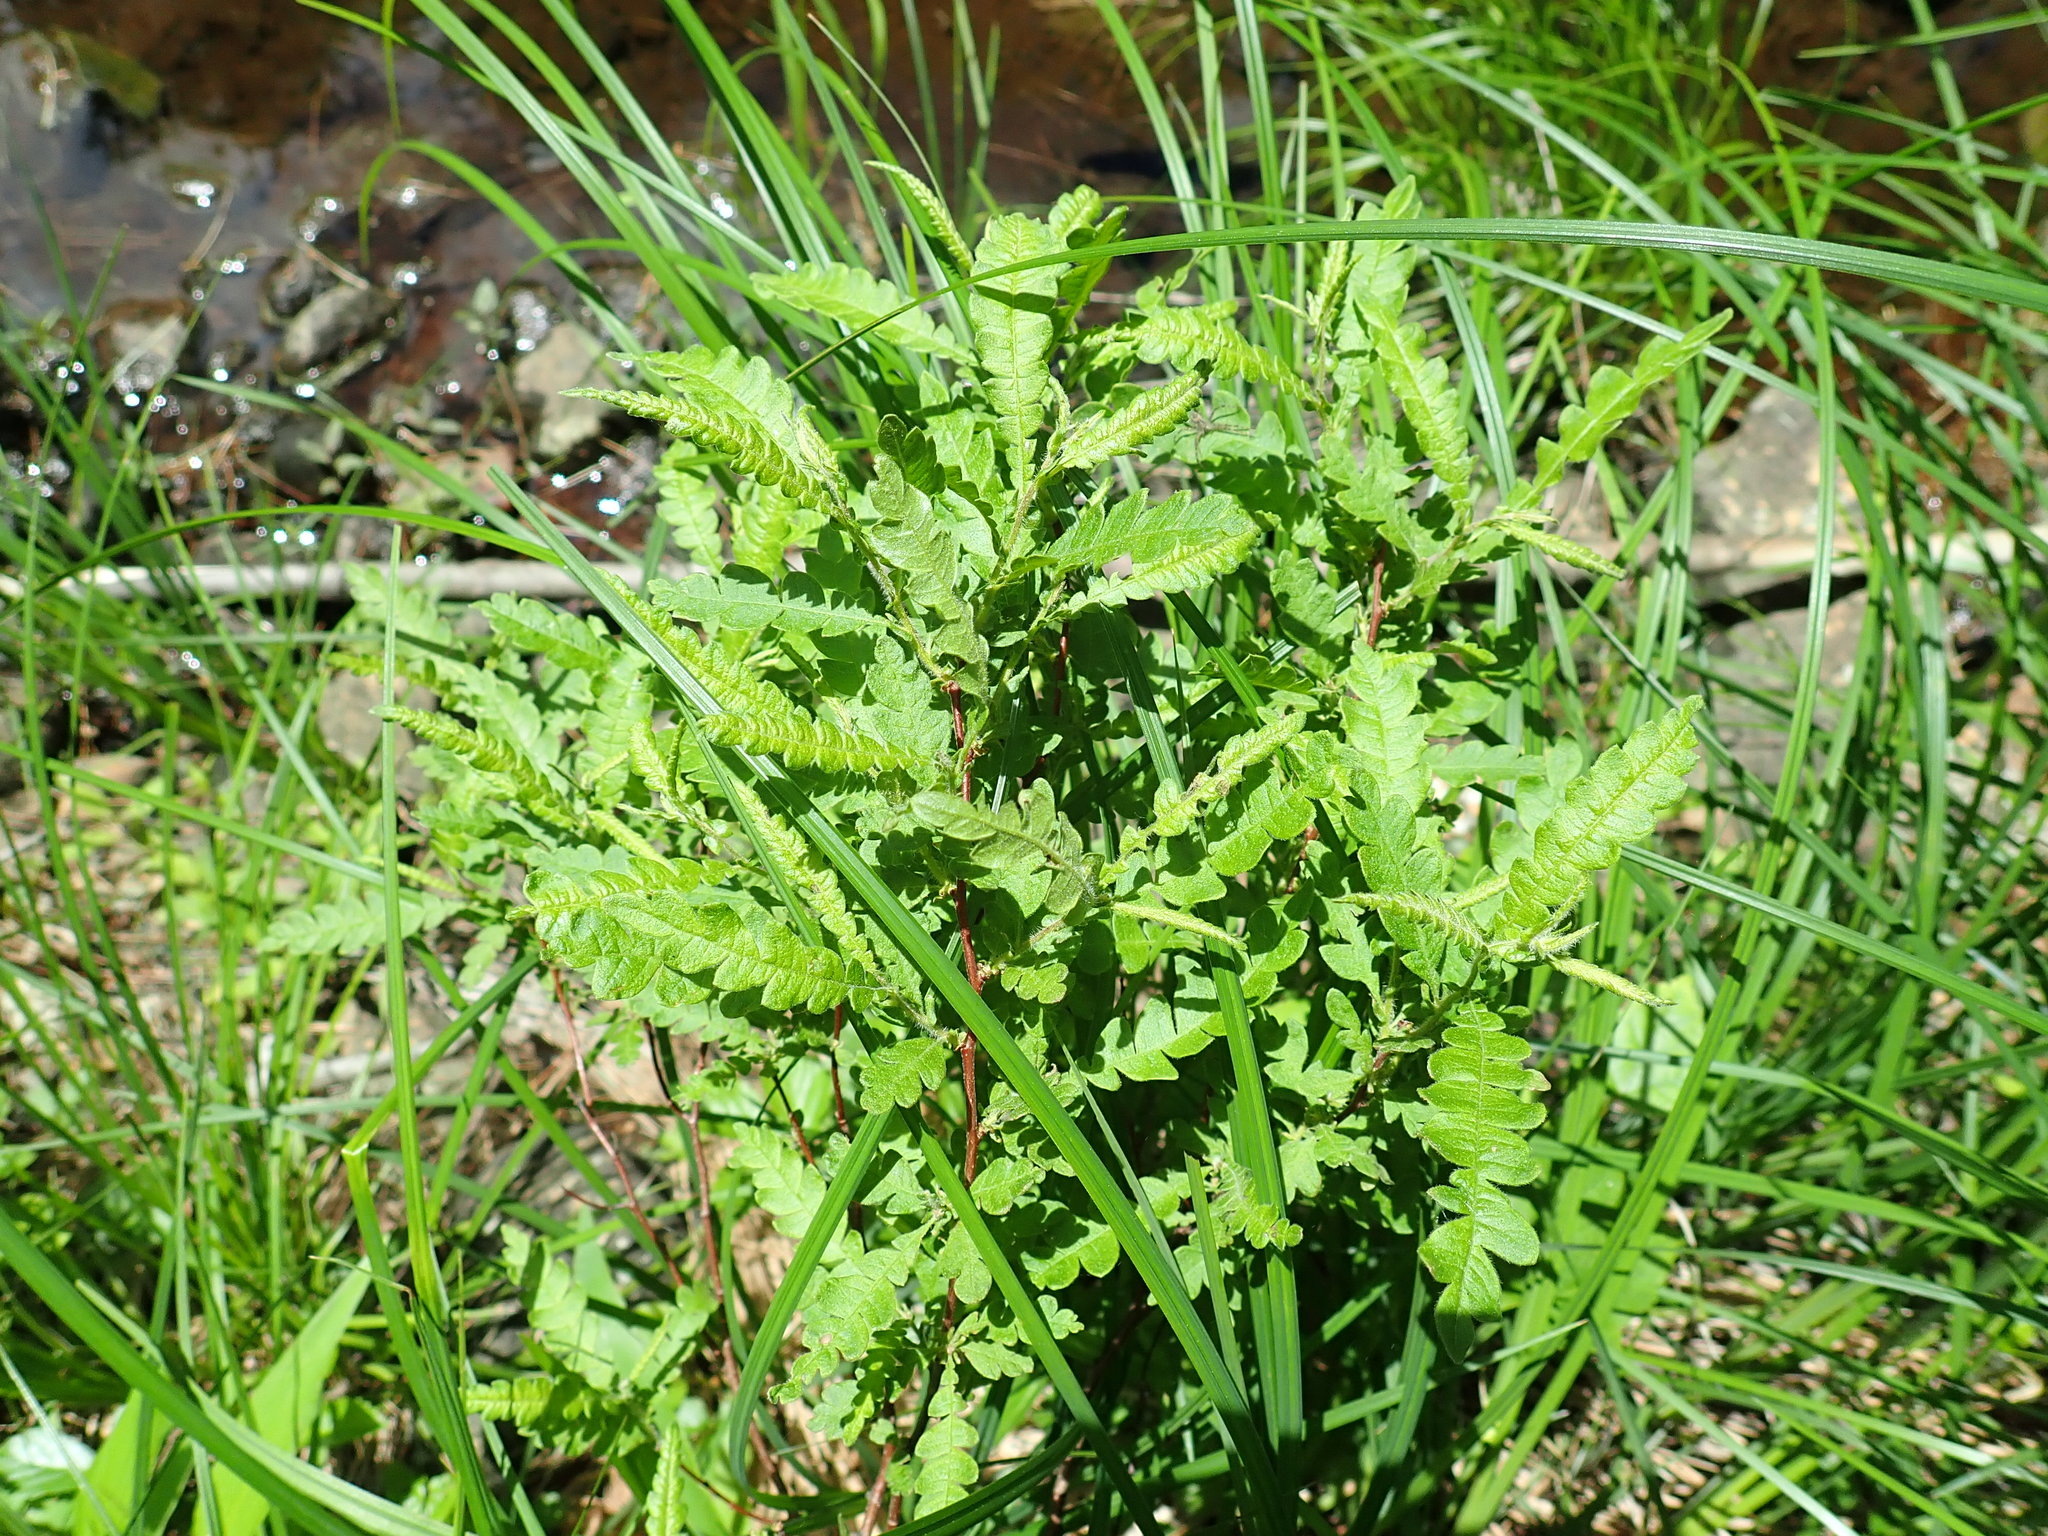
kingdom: Plantae
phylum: Tracheophyta
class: Magnoliopsida
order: Fagales
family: Myricaceae
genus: Comptonia
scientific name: Comptonia peregrina
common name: Sweet-fern
